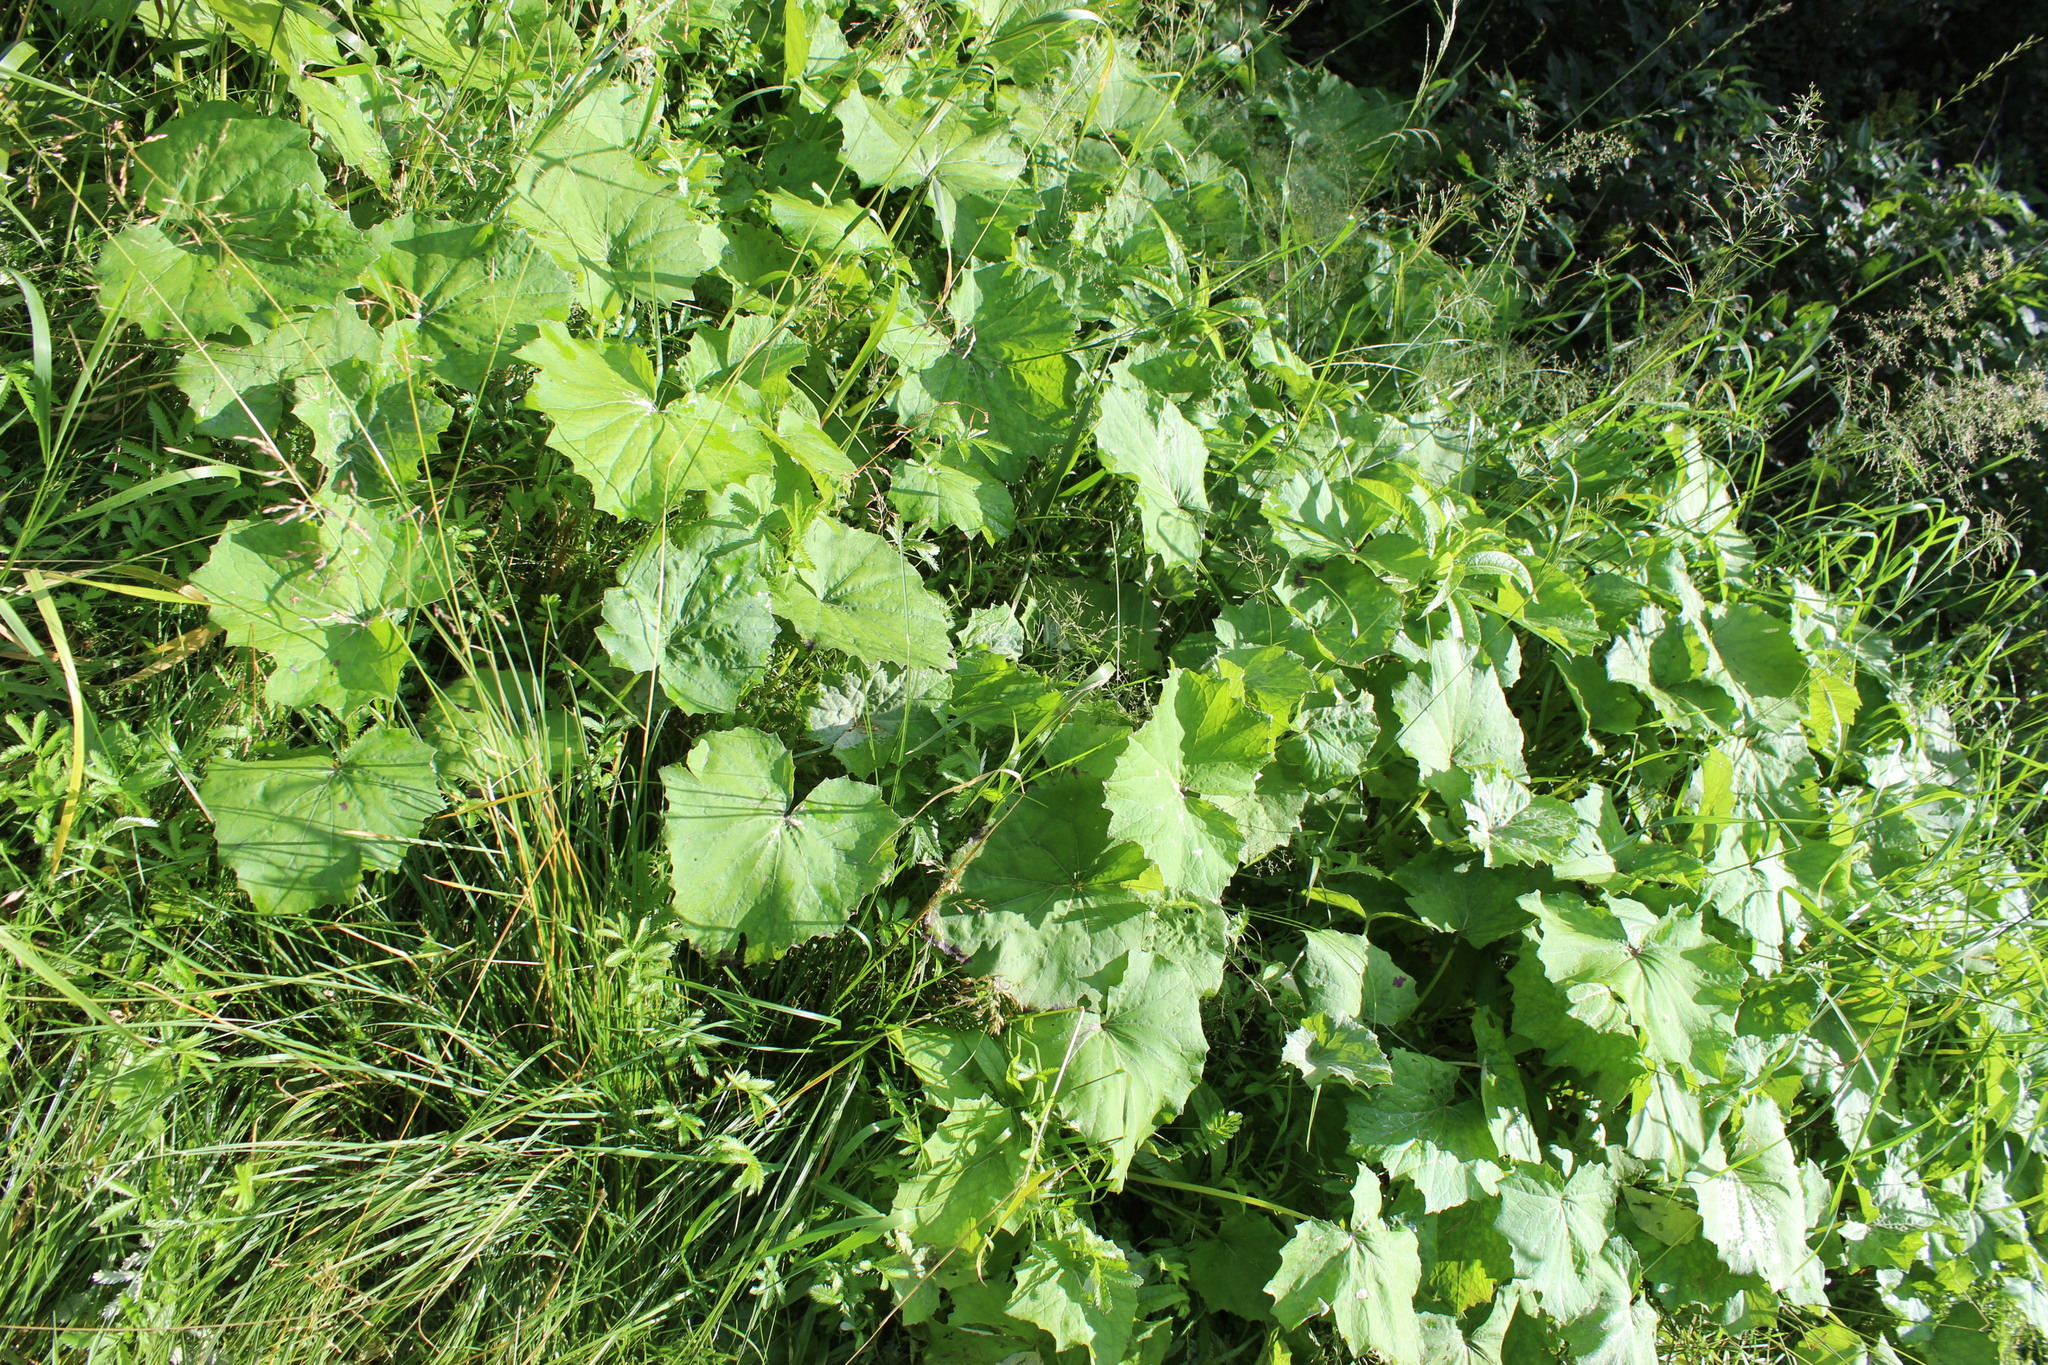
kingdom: Plantae
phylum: Tracheophyta
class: Magnoliopsida
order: Asterales
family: Asteraceae
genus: Tussilago
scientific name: Tussilago farfara
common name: Coltsfoot
